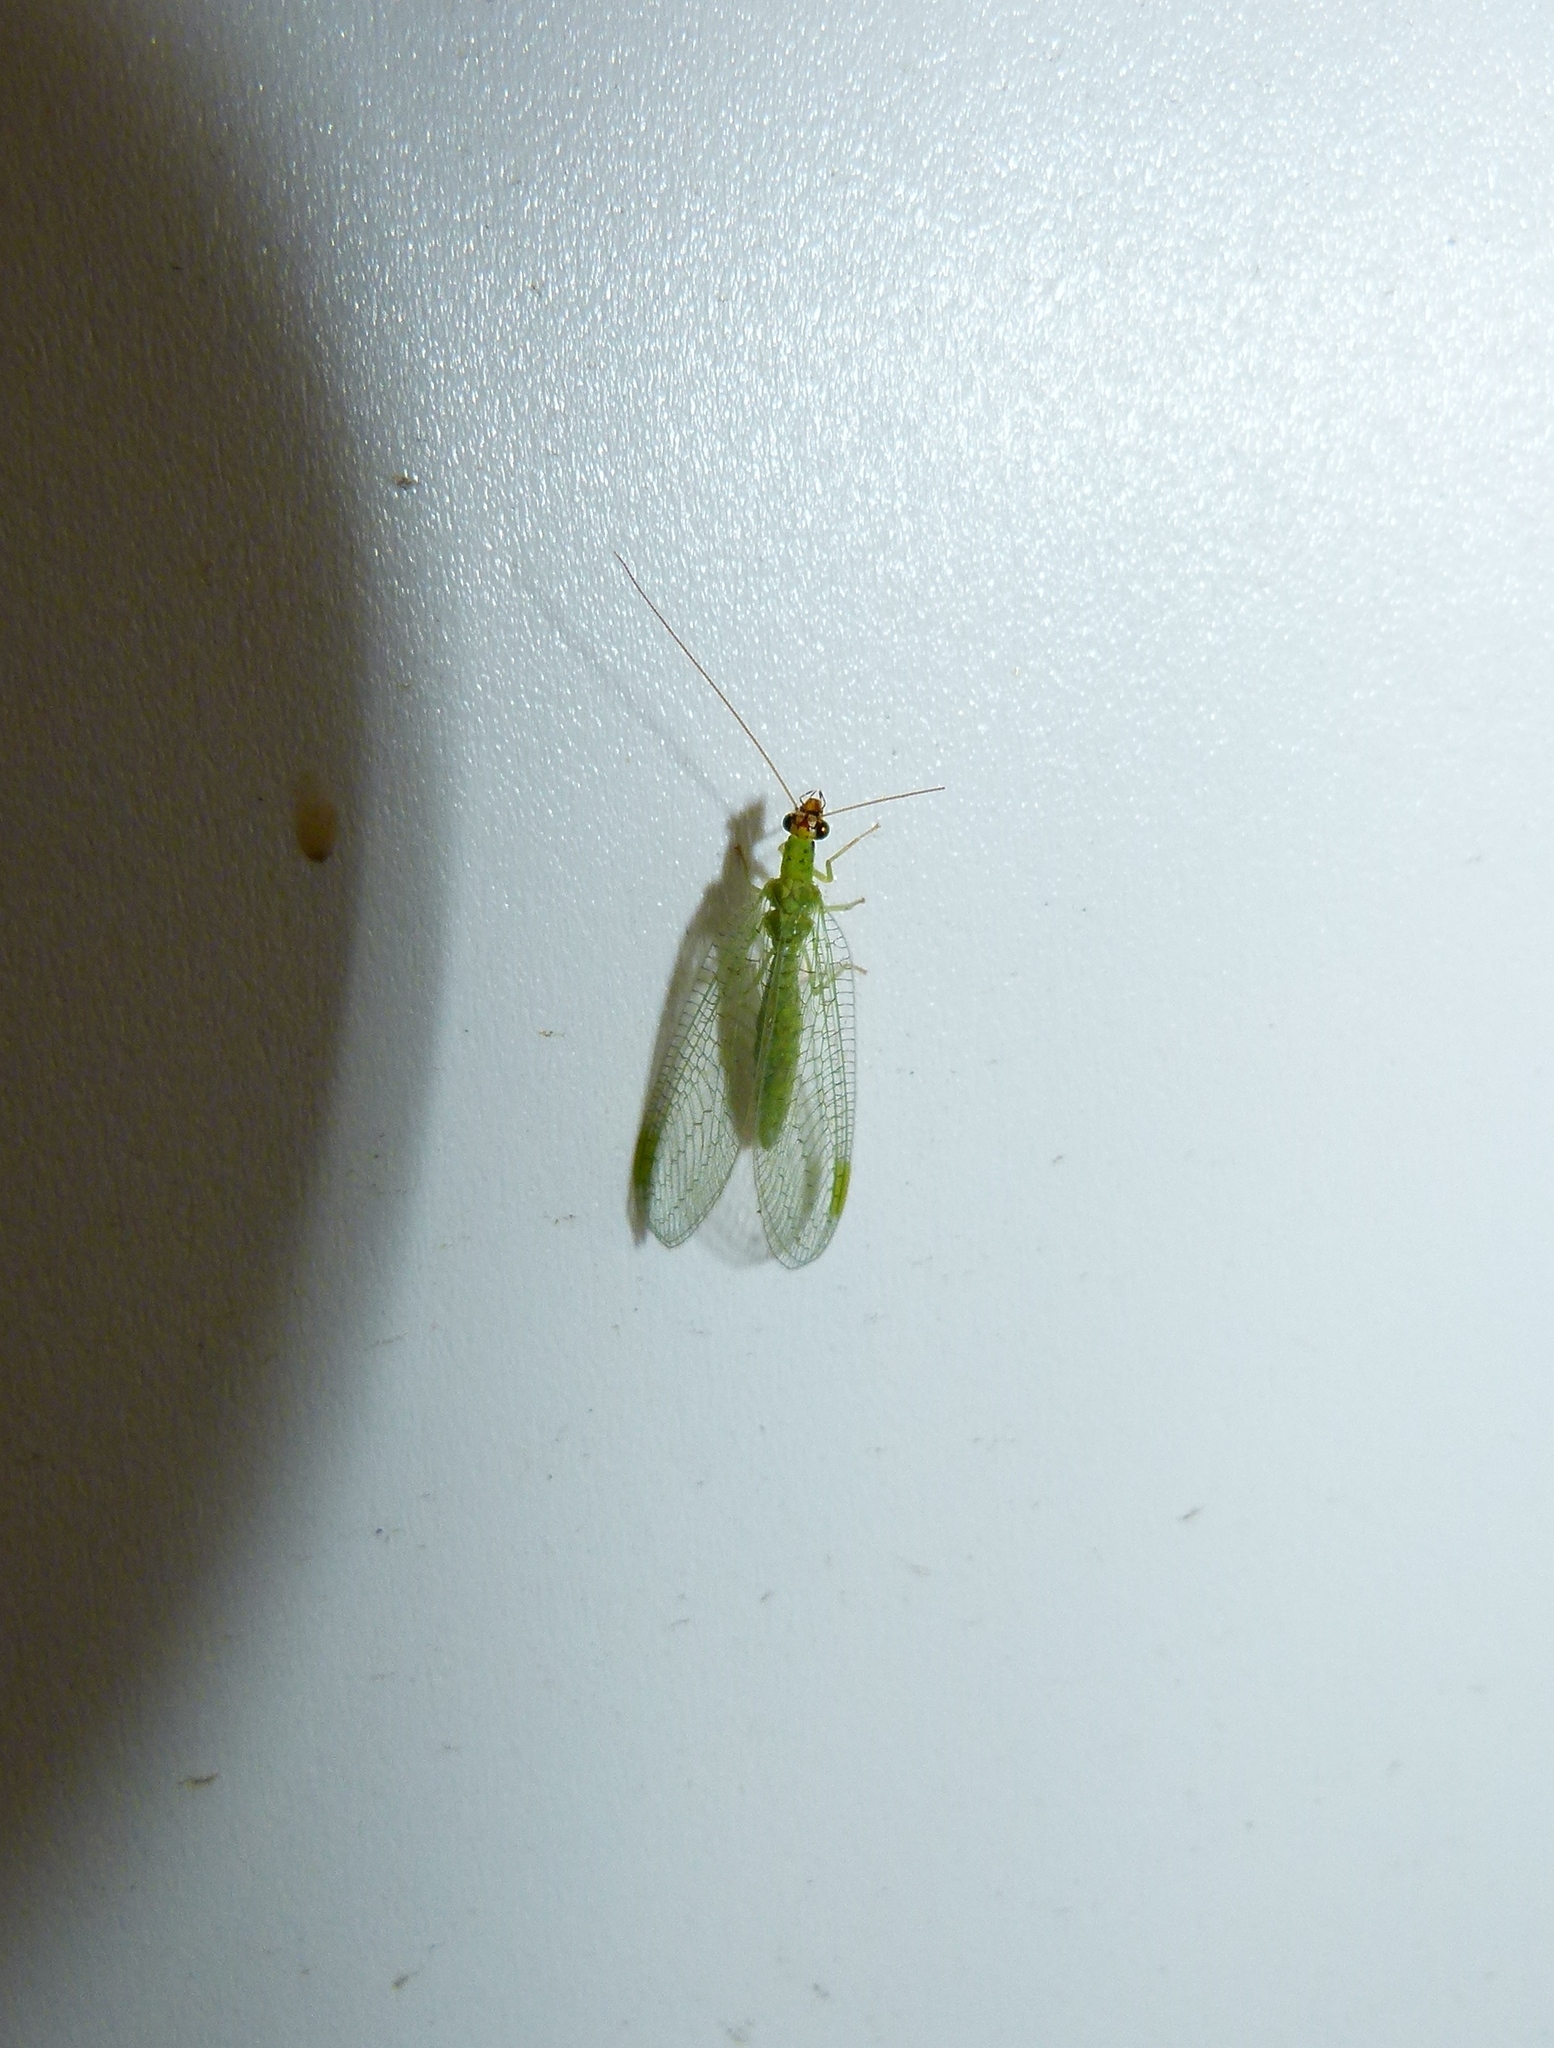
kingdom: Animalia
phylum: Arthropoda
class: Insecta
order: Neuroptera
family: Chrysopidae
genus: Chrysopa
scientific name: Chrysopa oculata
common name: Golden-eyed lacewing
